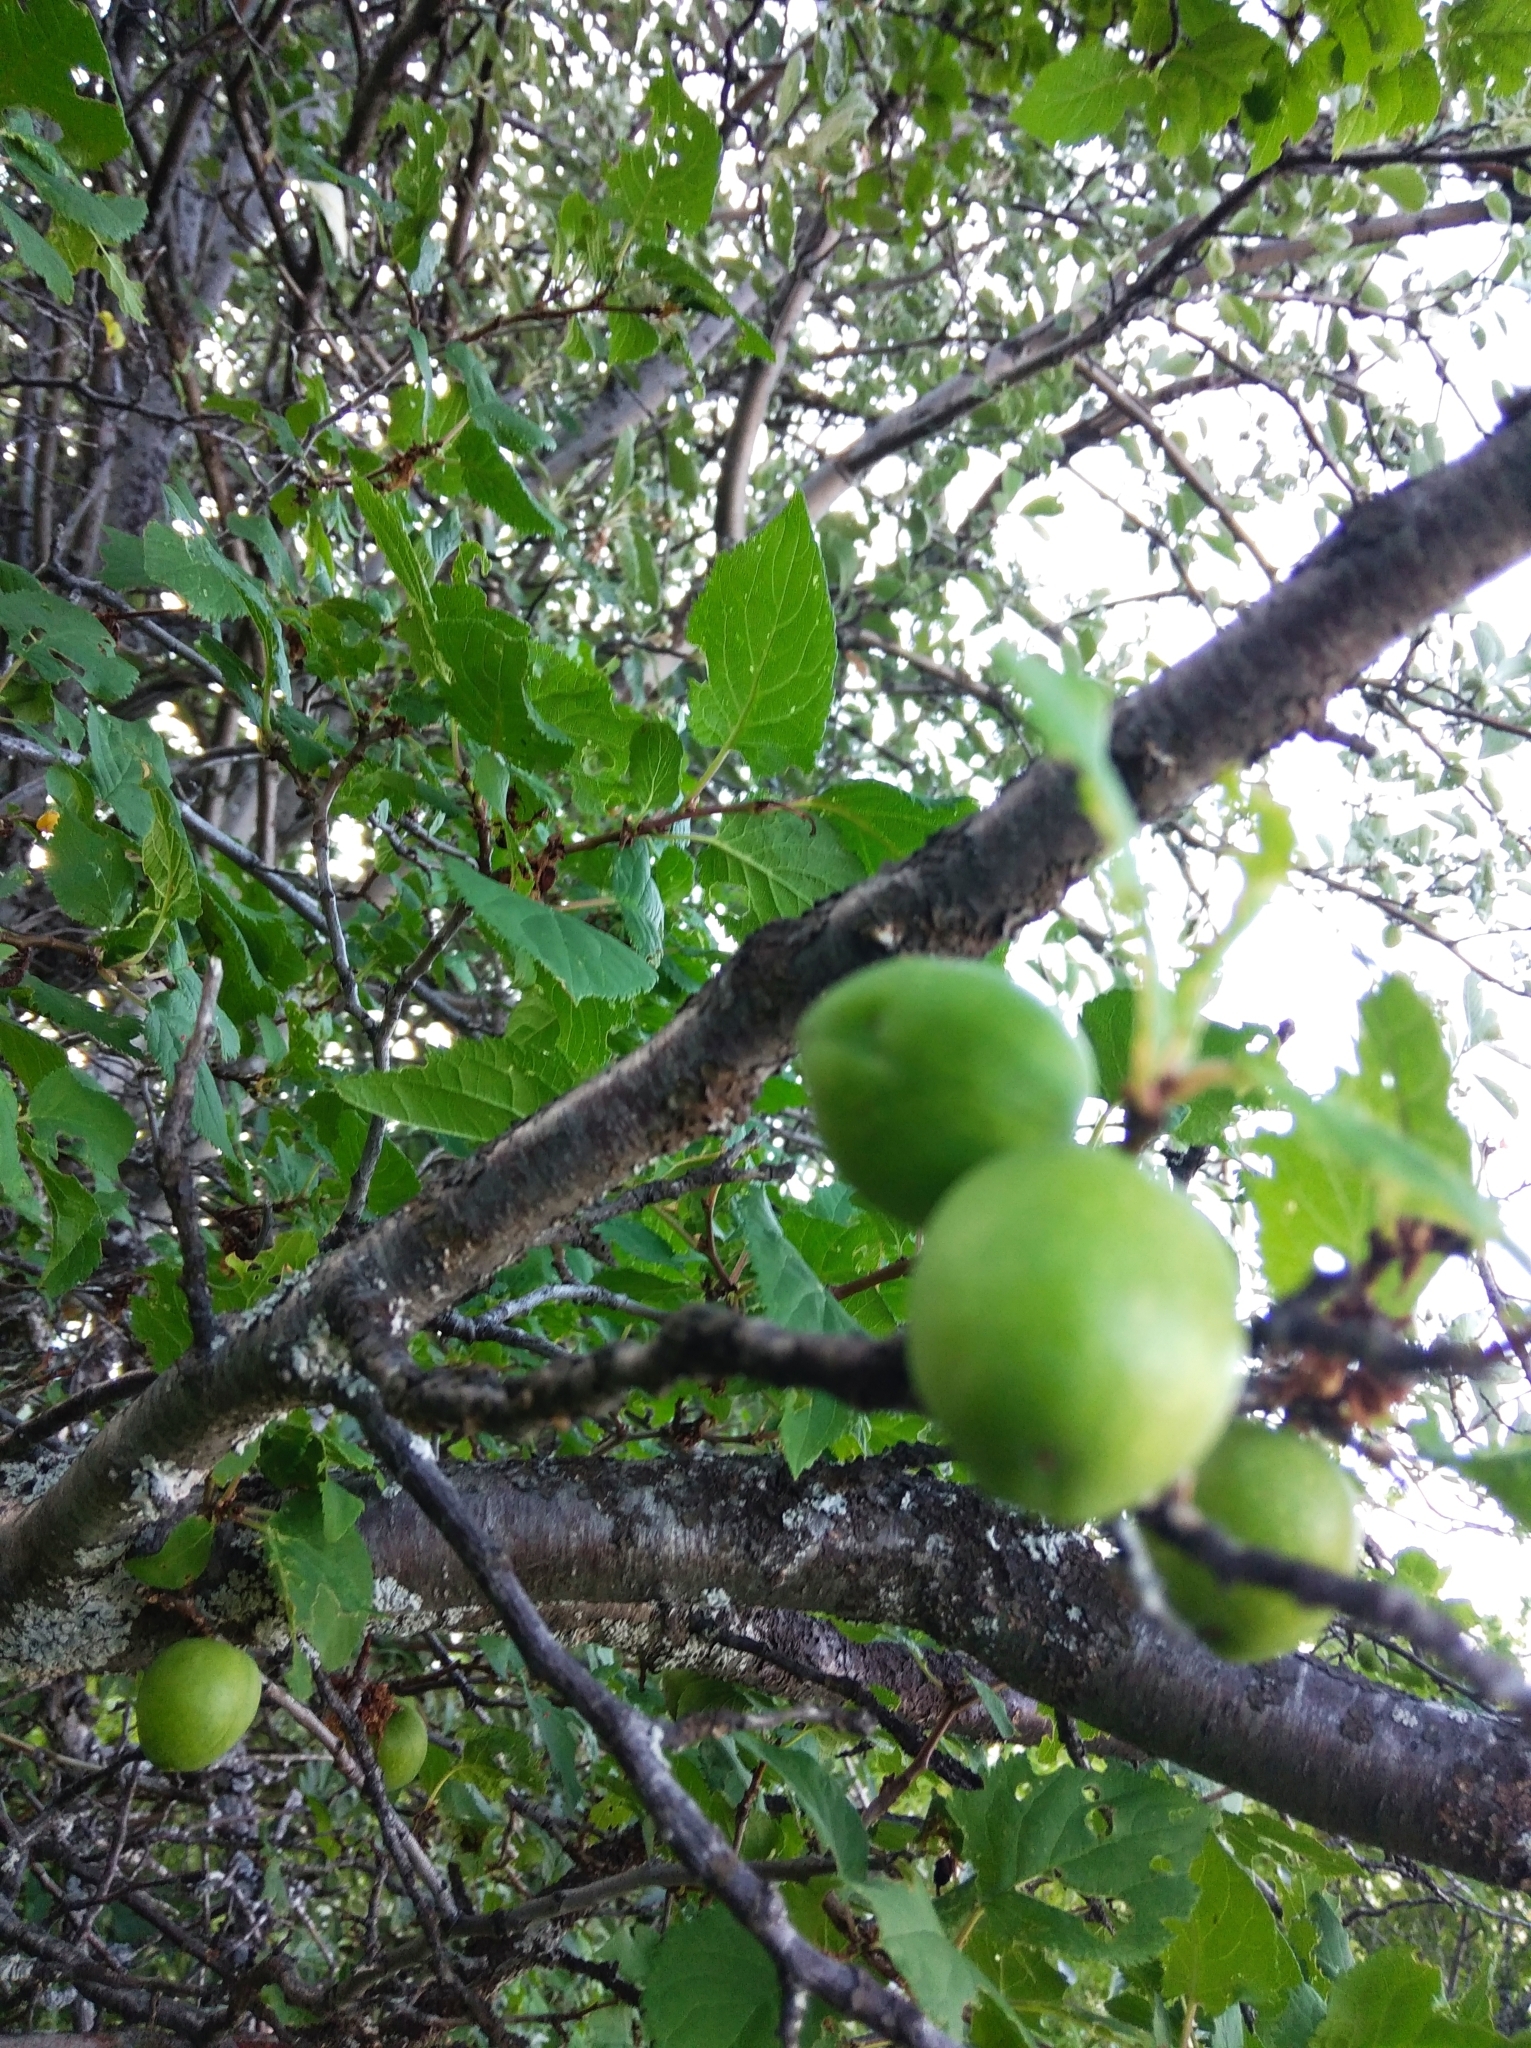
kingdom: Plantae
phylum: Tracheophyta
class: Magnoliopsida
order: Rosales
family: Rosaceae
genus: Prunus
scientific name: Prunus brigantina
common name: Briançon apricot
